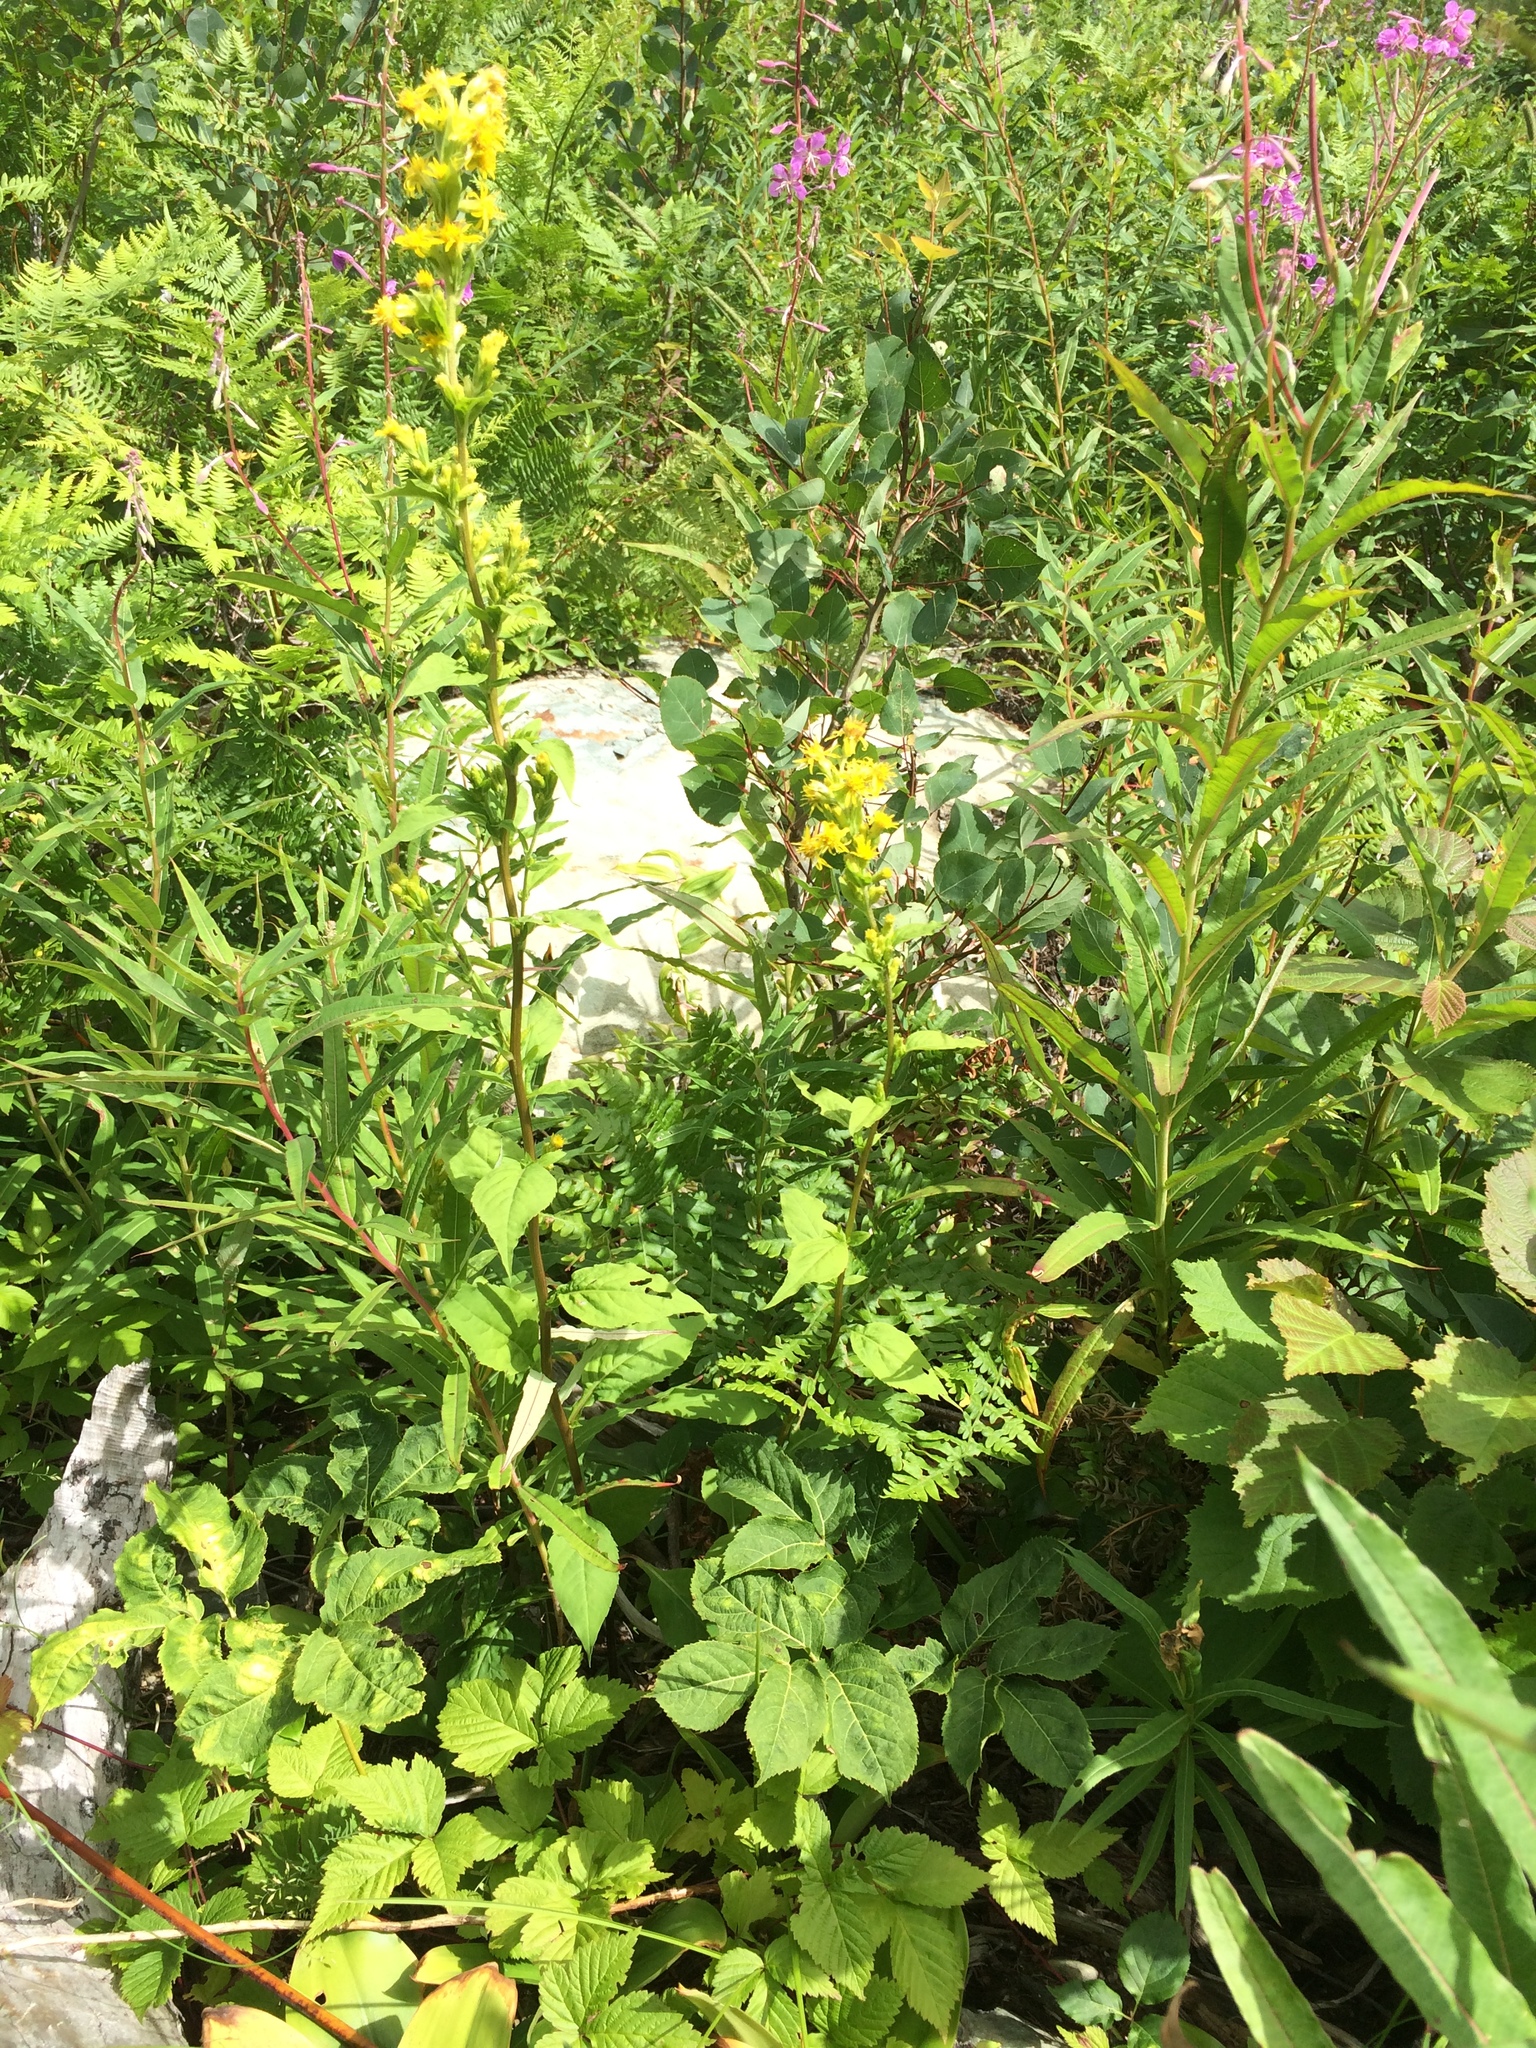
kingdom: Plantae
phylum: Tracheophyta
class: Magnoliopsida
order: Rosales
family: Rosaceae
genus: Rubus
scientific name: Rubus pubescens
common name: Dwarf raspberry
